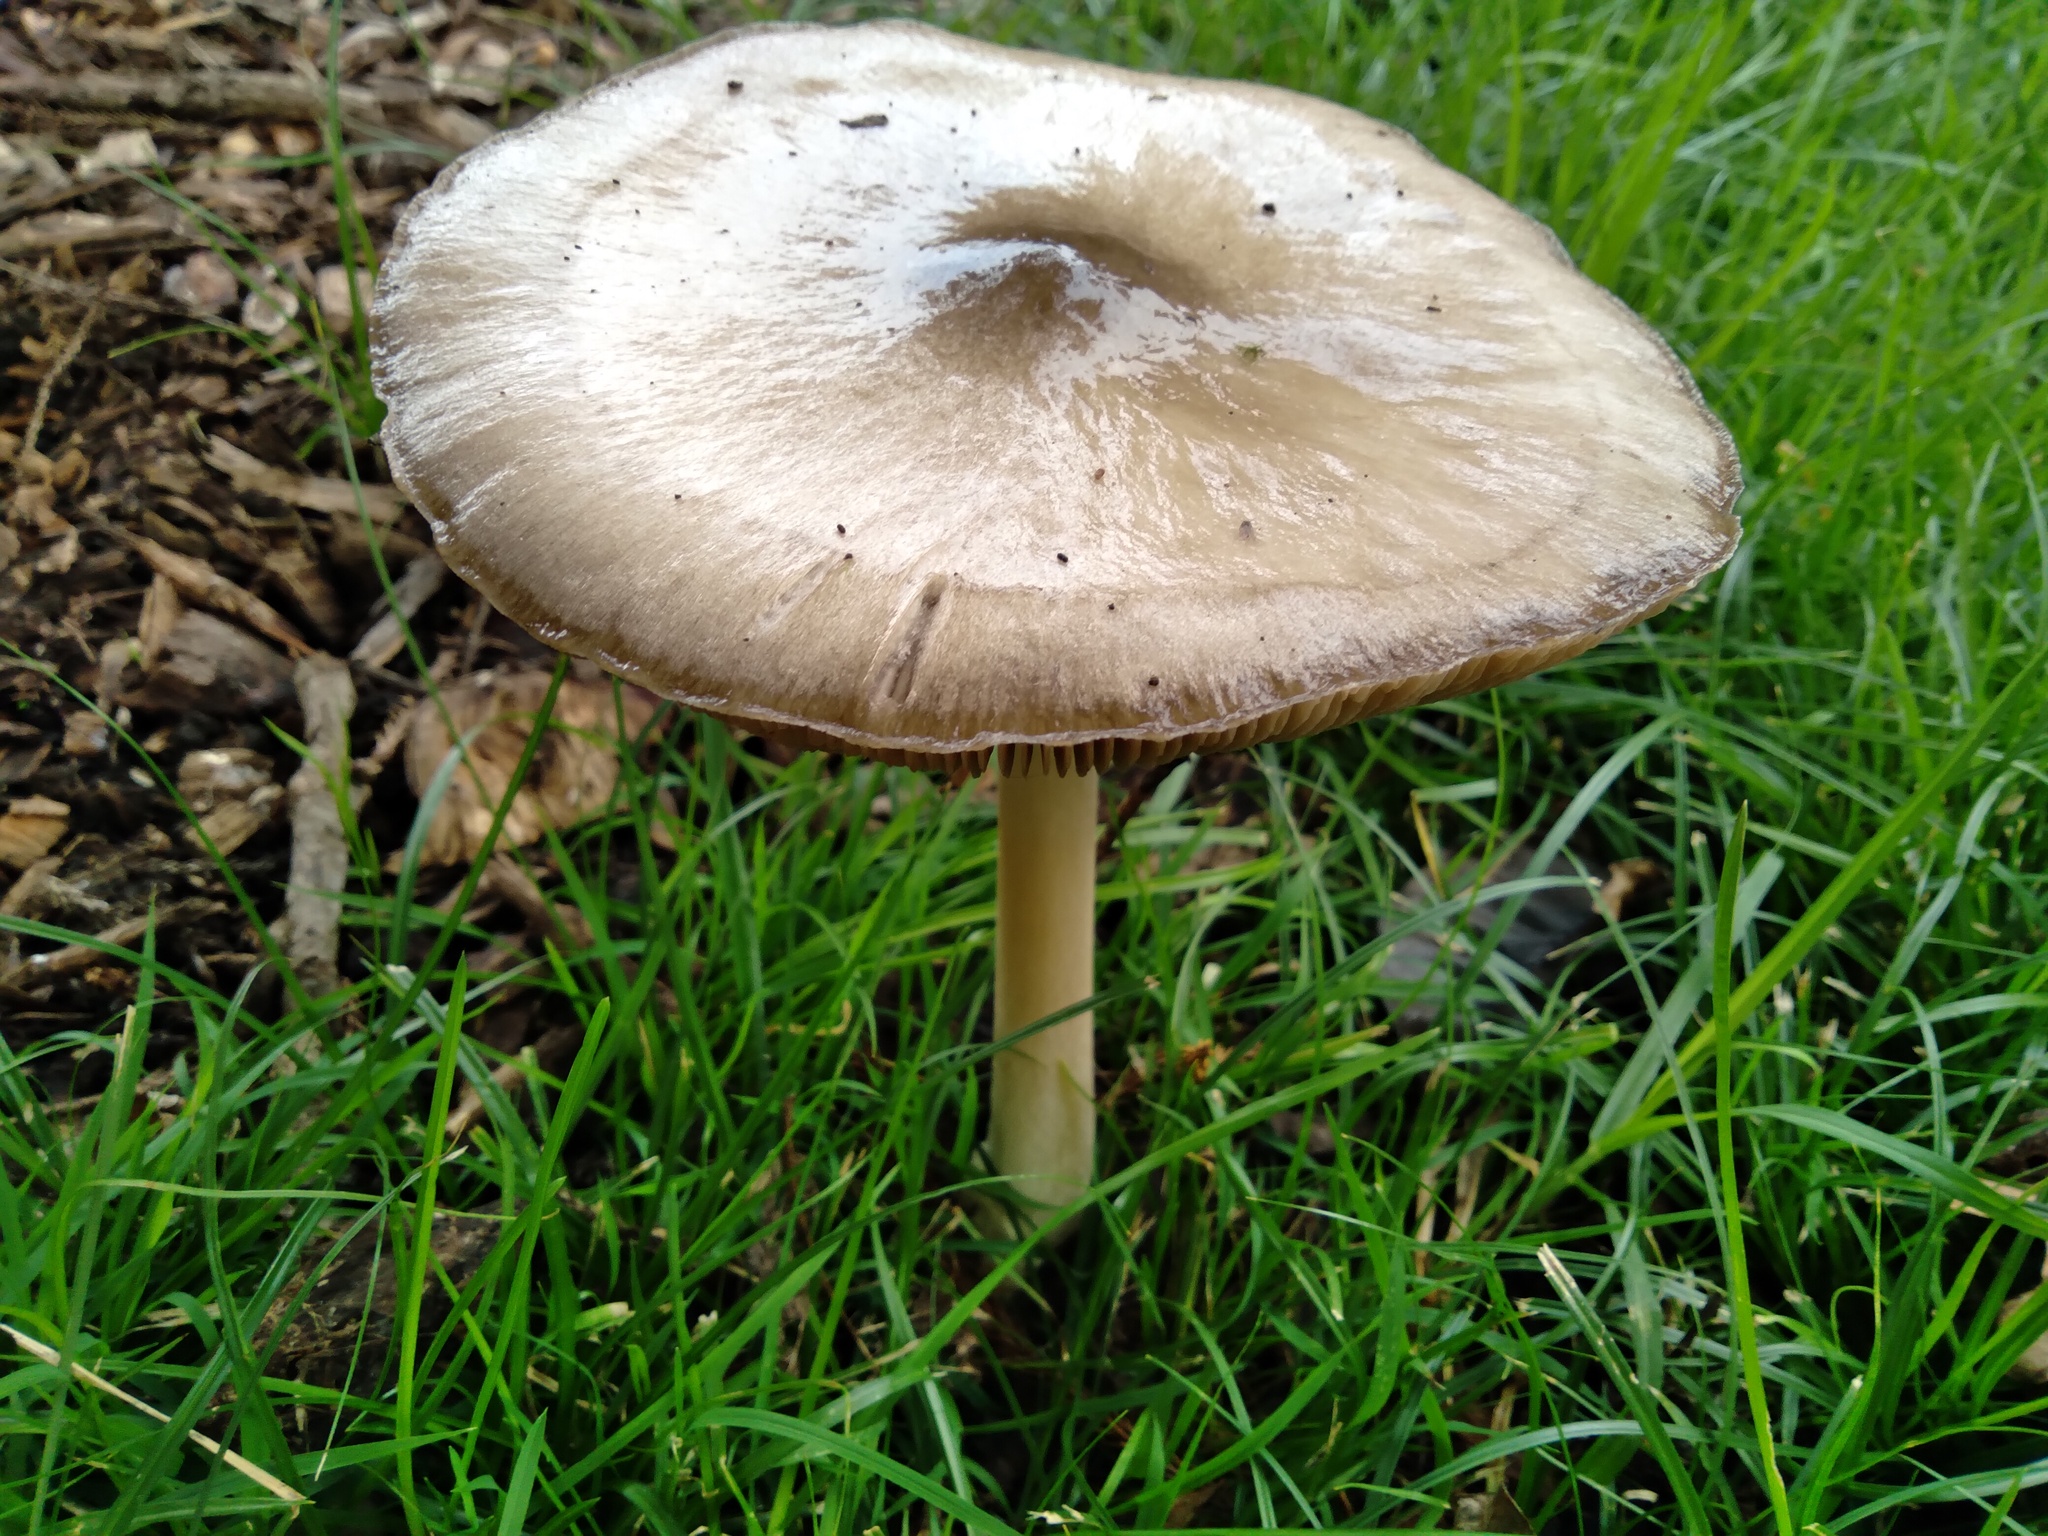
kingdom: Fungi
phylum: Basidiomycota
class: Agaricomycetes
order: Agaricales
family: Pluteaceae
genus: Volvopluteus
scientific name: Volvopluteus gloiocephalus
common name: Stubble rosegill
